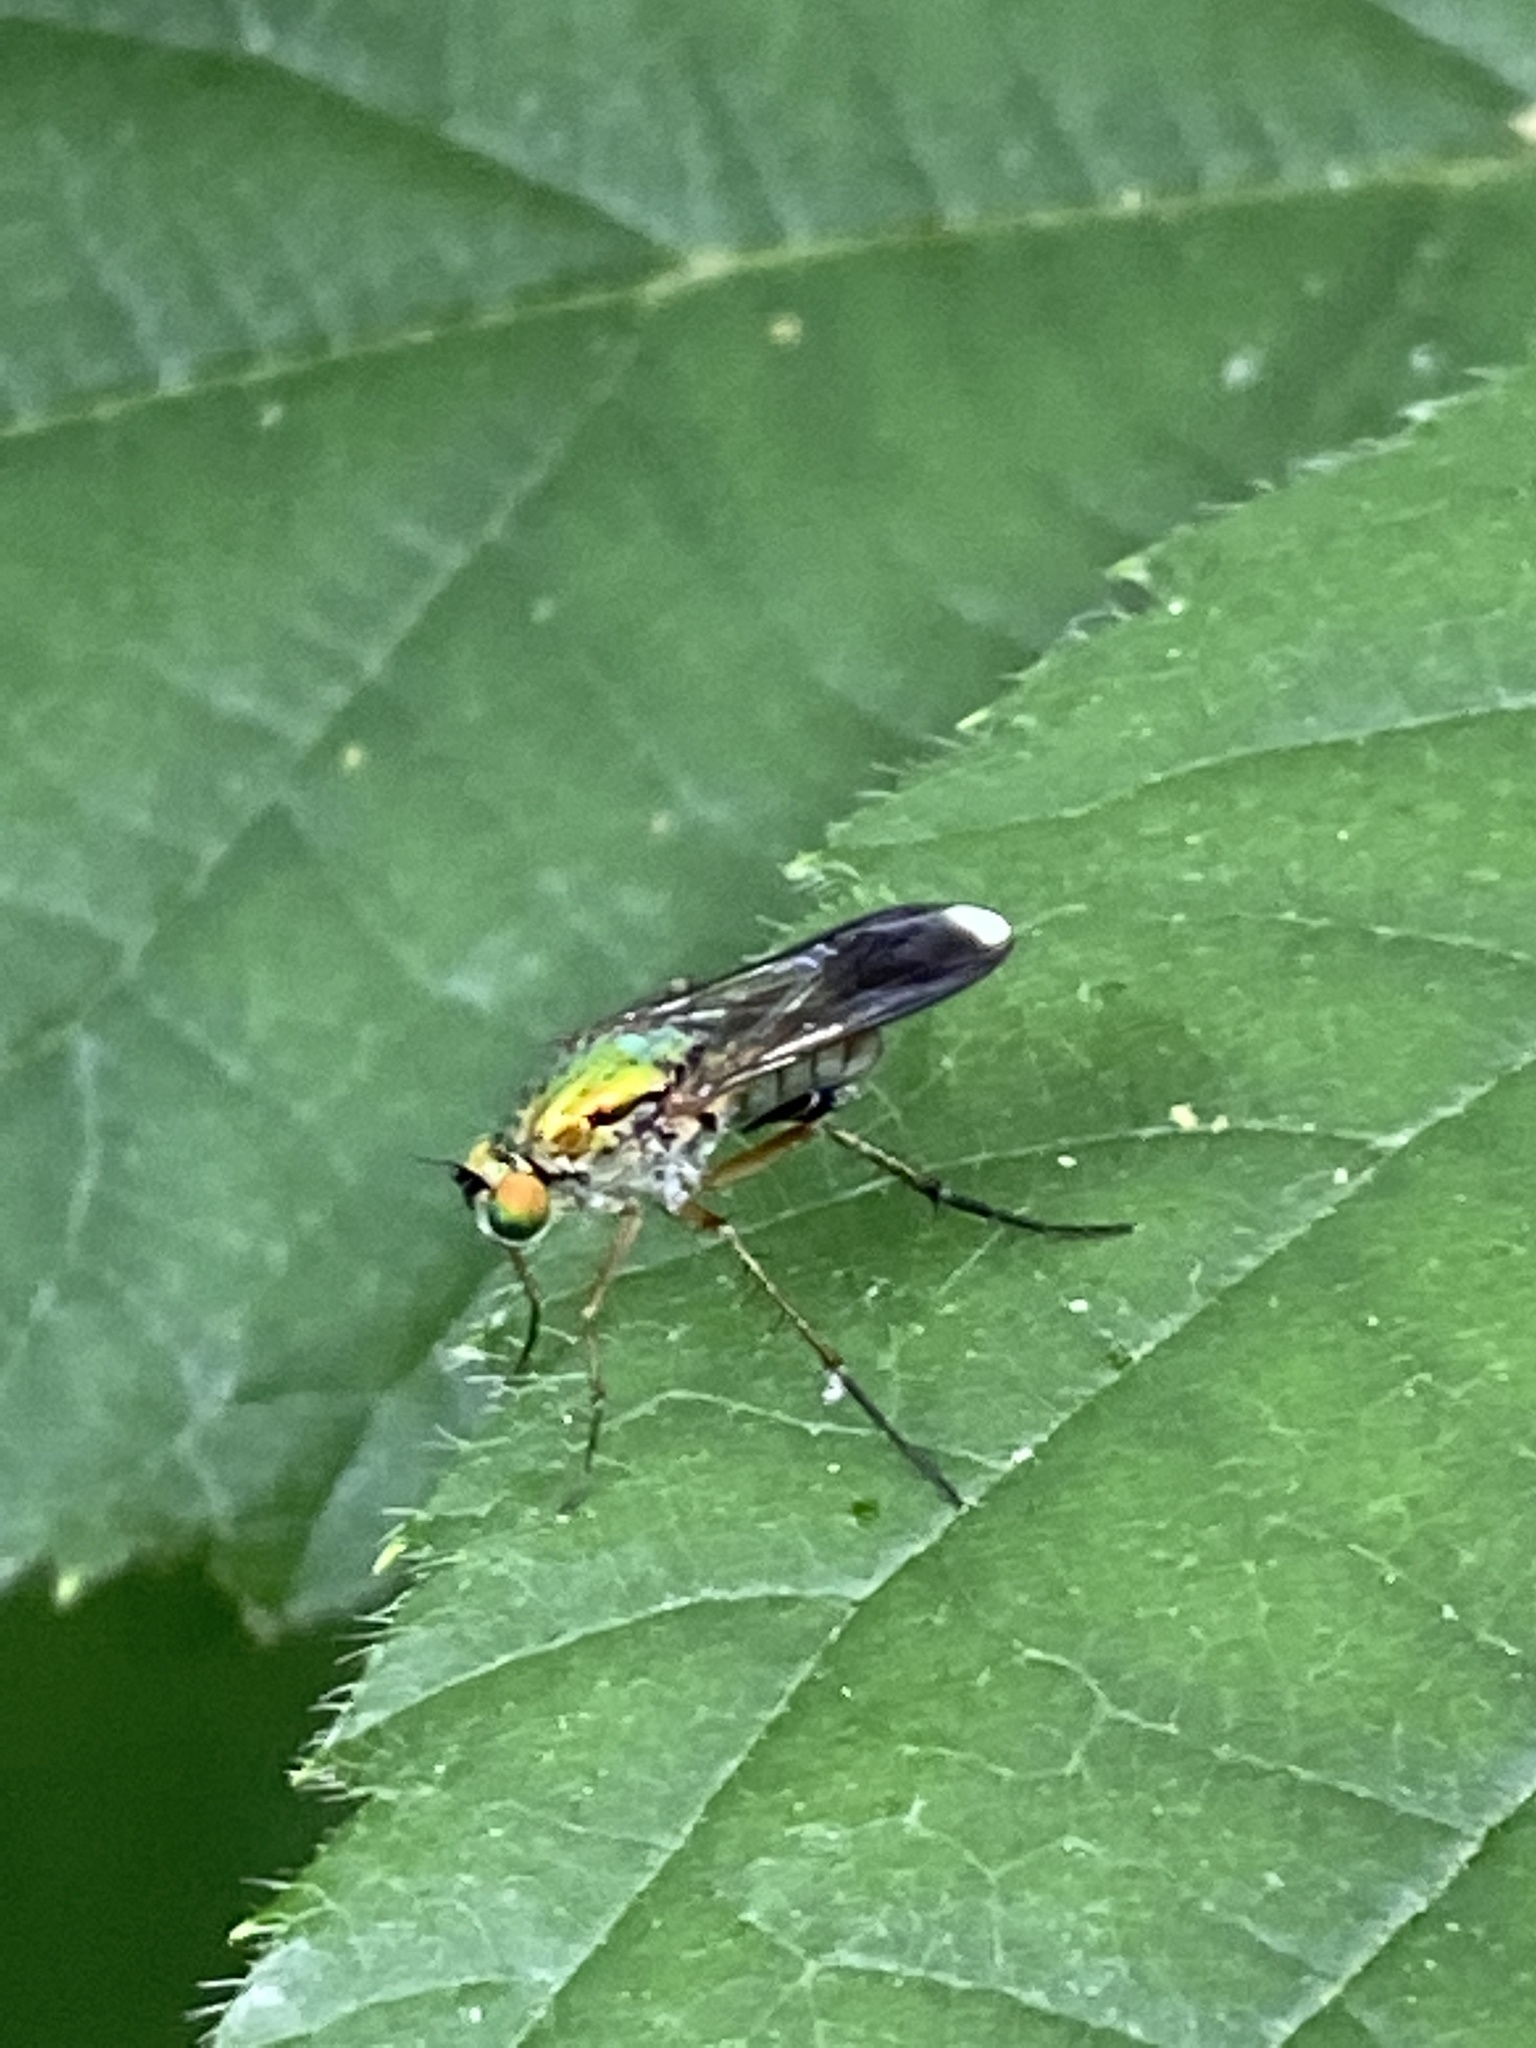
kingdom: Animalia
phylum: Arthropoda
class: Insecta
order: Diptera
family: Dolichopodidae
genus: Poecilobothrus
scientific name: Poecilobothrus nobilitatus
